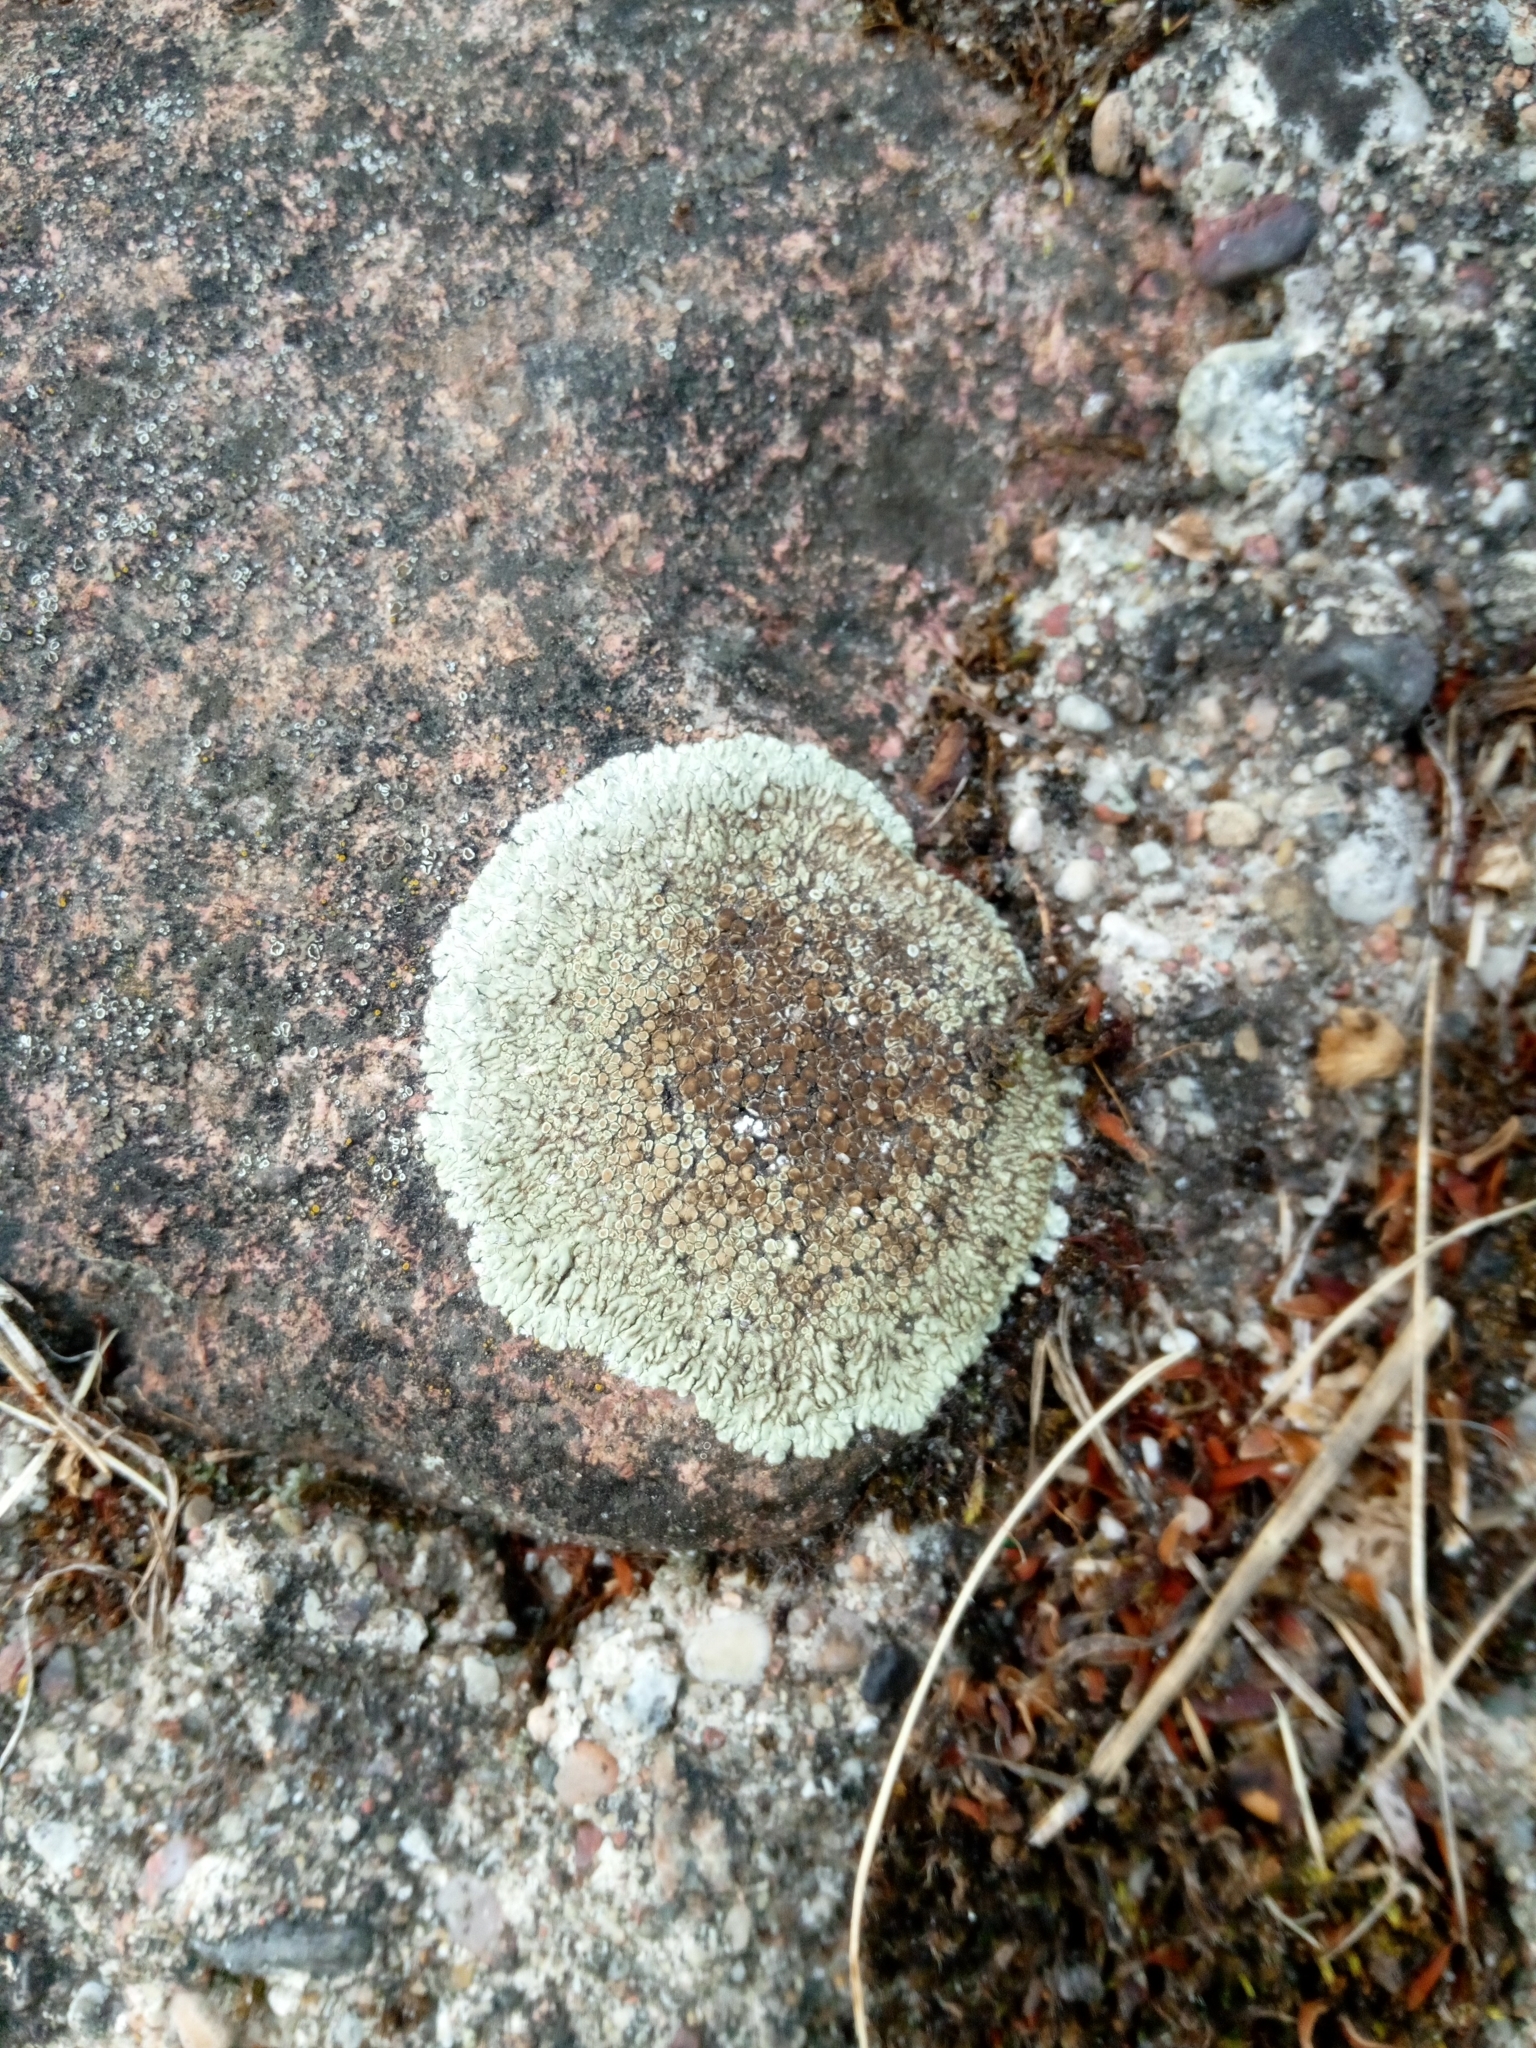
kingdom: Fungi
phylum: Ascomycota
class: Lecanoromycetes
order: Lecanorales
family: Lecanoraceae
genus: Protoparmeliopsis
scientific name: Protoparmeliopsis muralis
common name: Stonewall rim lichen
